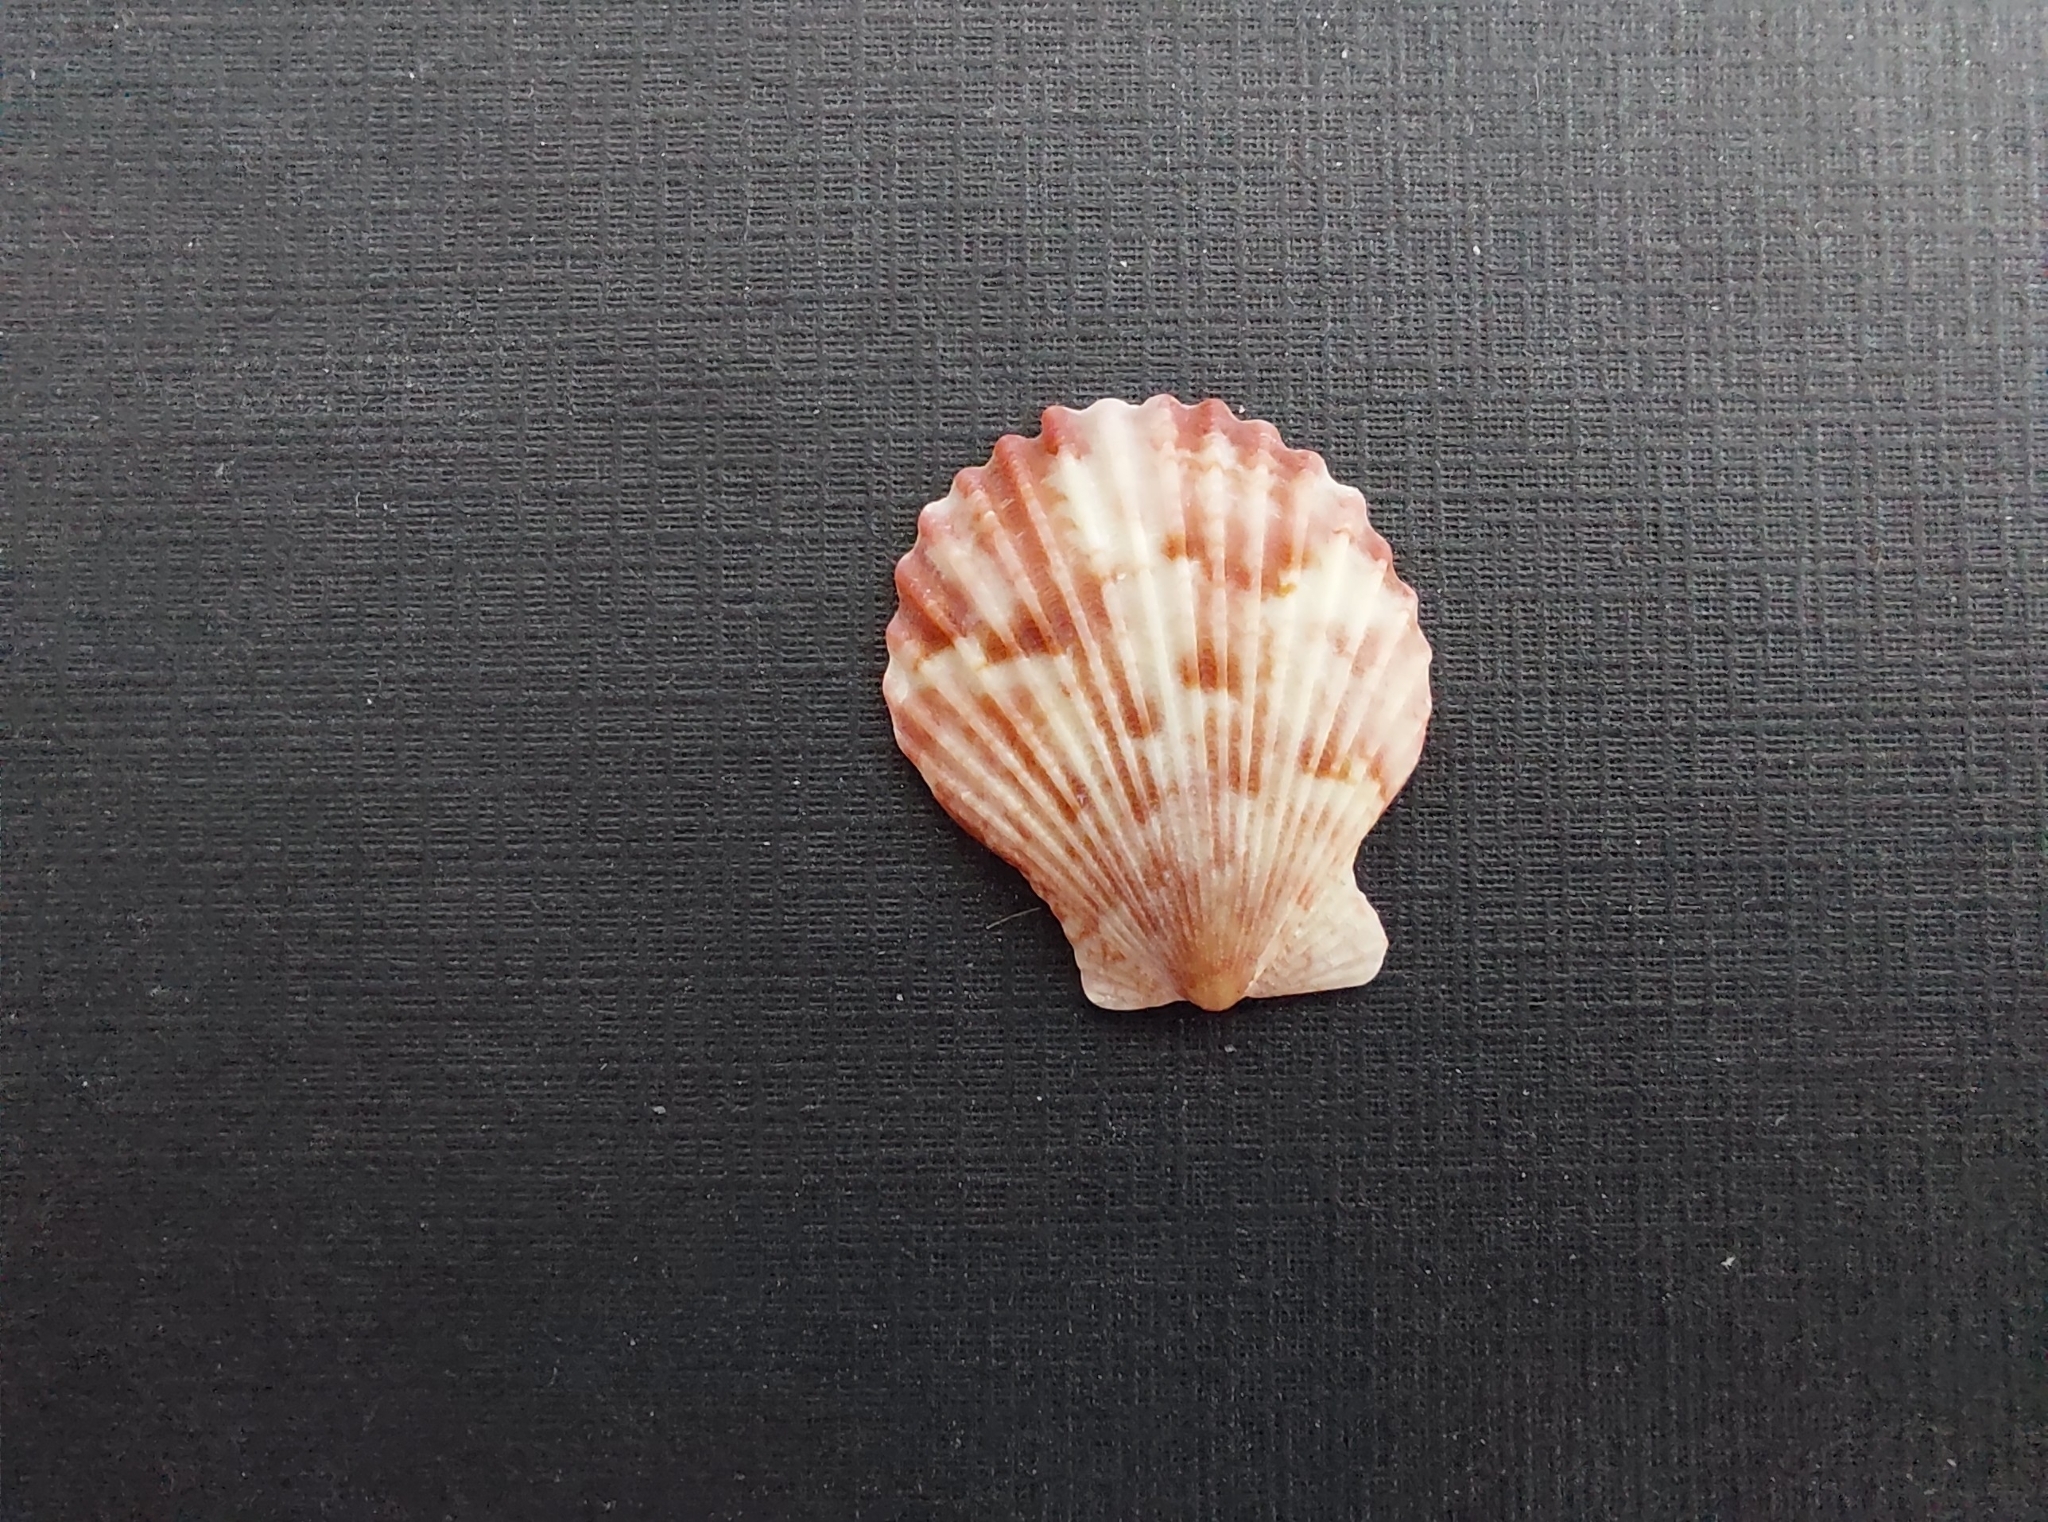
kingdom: Animalia
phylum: Mollusca
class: Bivalvia
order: Pectinida
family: Pectinidae
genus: Aequipecten
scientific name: Aequipecten opercularis
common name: Queen scallop
